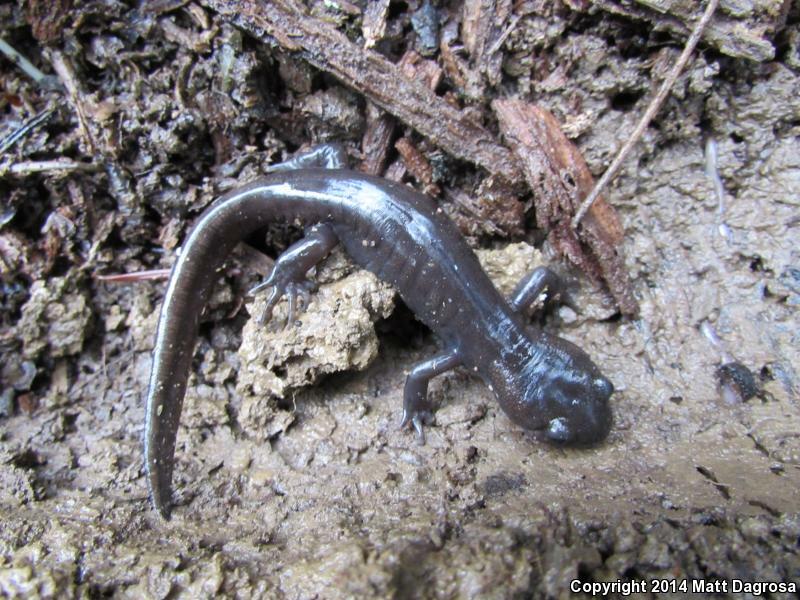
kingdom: Animalia
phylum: Chordata
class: Amphibia
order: Caudata
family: Ambystomatidae
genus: Ambystoma
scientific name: Ambystoma gracile
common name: Northwestern salamander
